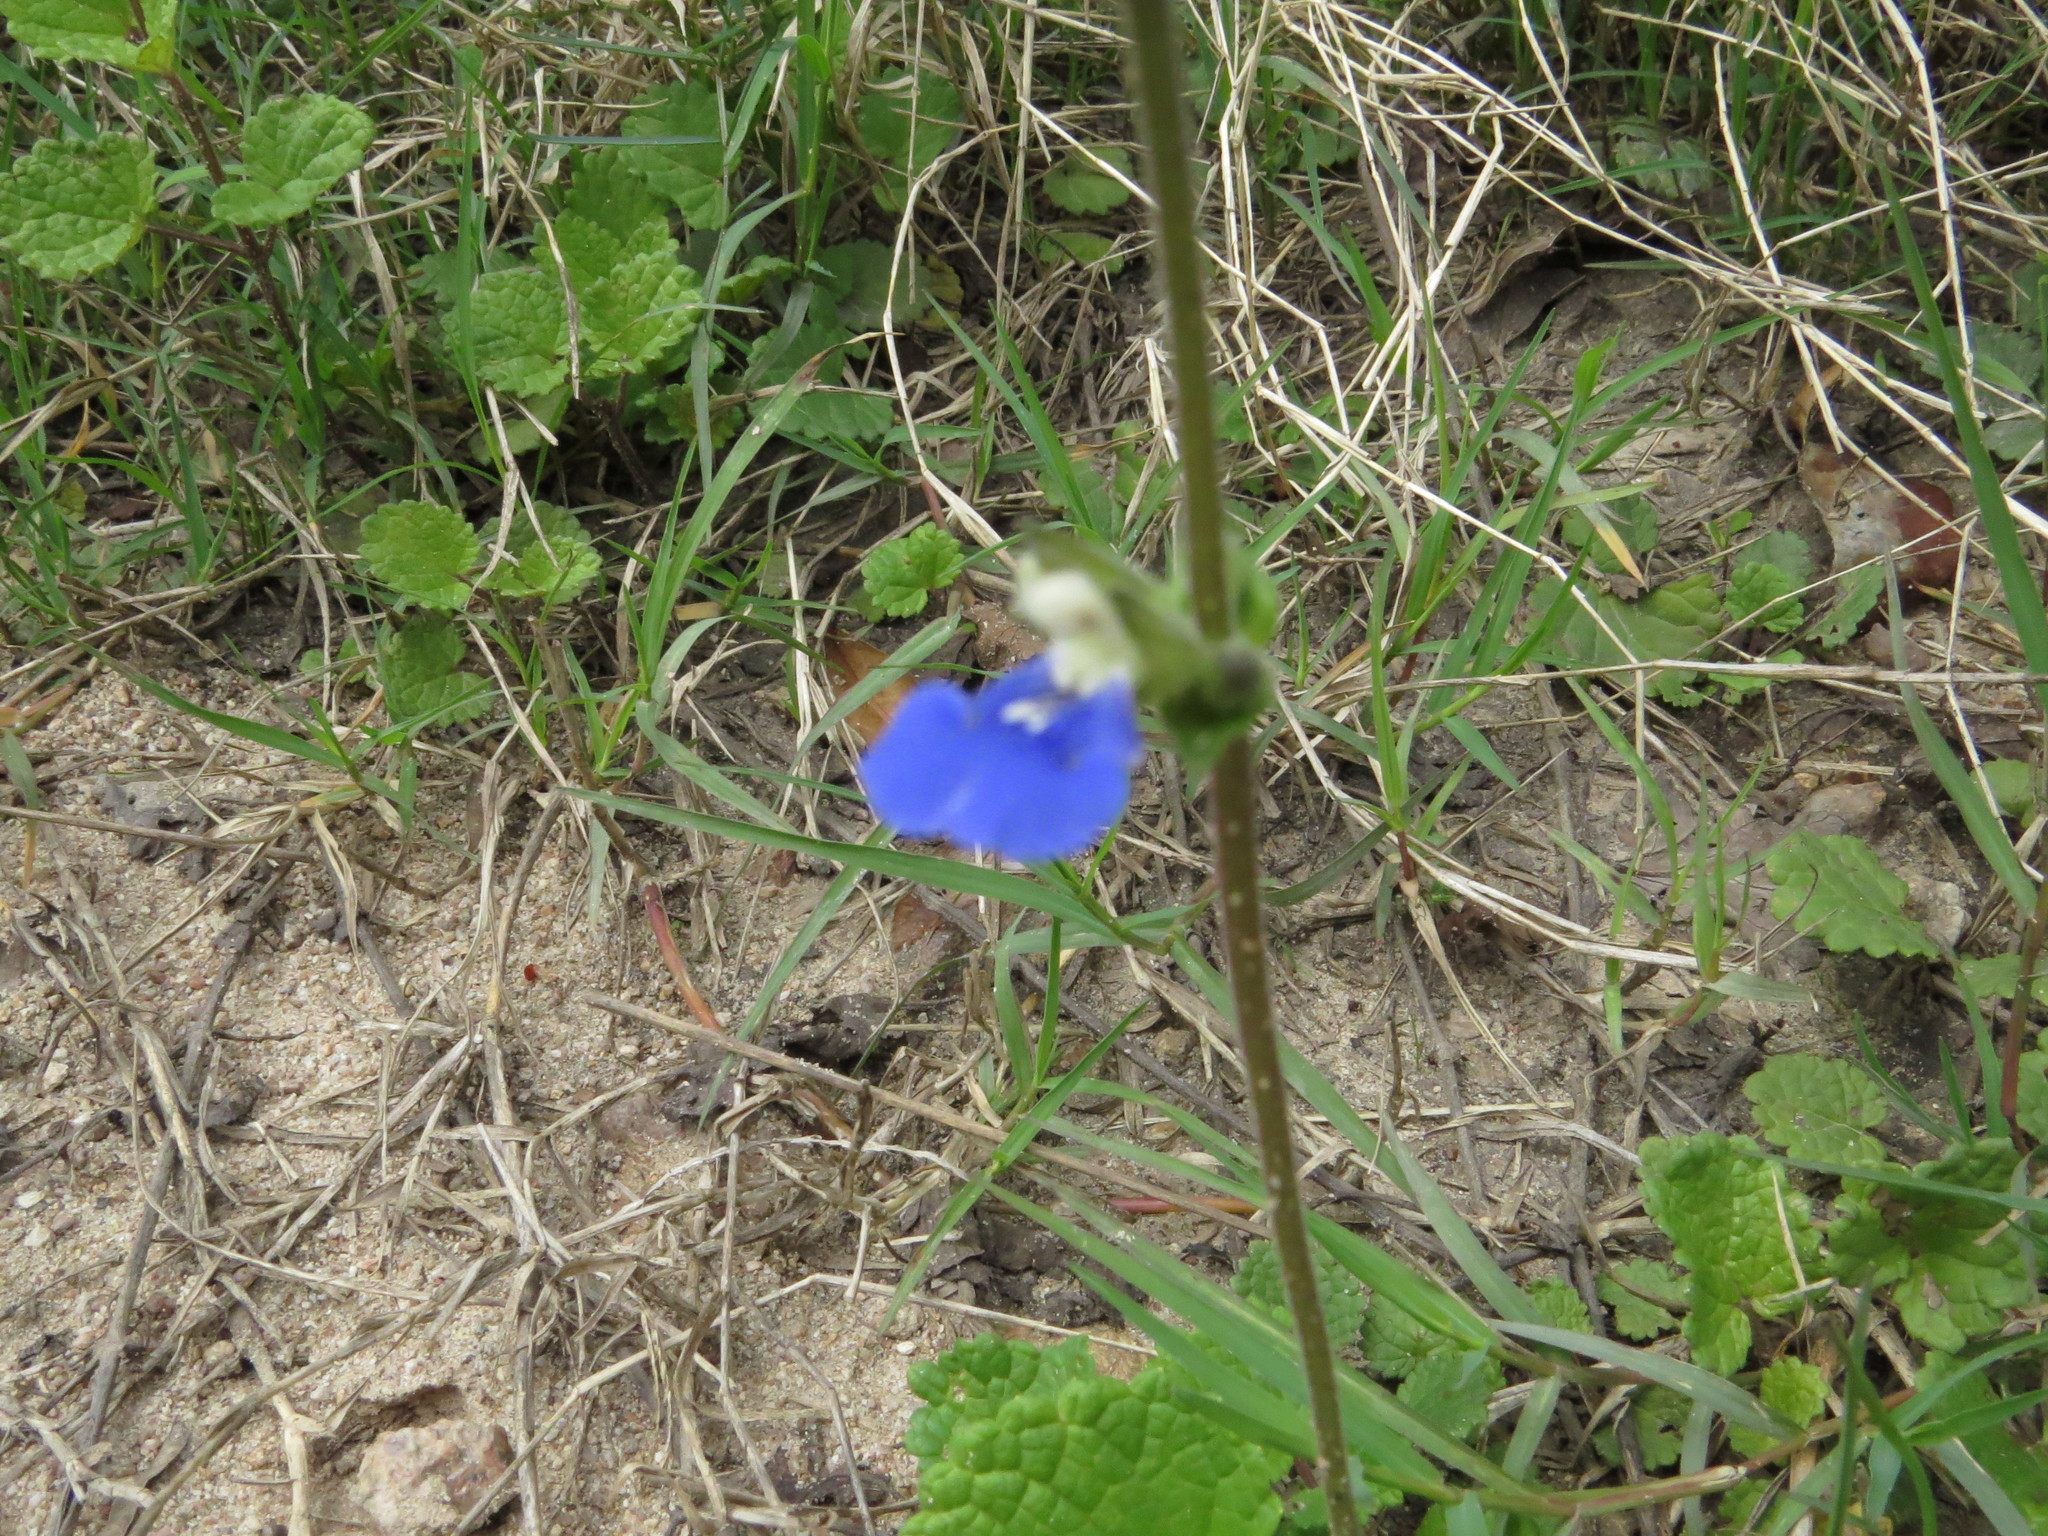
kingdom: Plantae
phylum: Tracheophyta
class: Magnoliopsida
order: Lamiales
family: Lamiaceae
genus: Salvia
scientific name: Salvia procurrens
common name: Blue creeper
